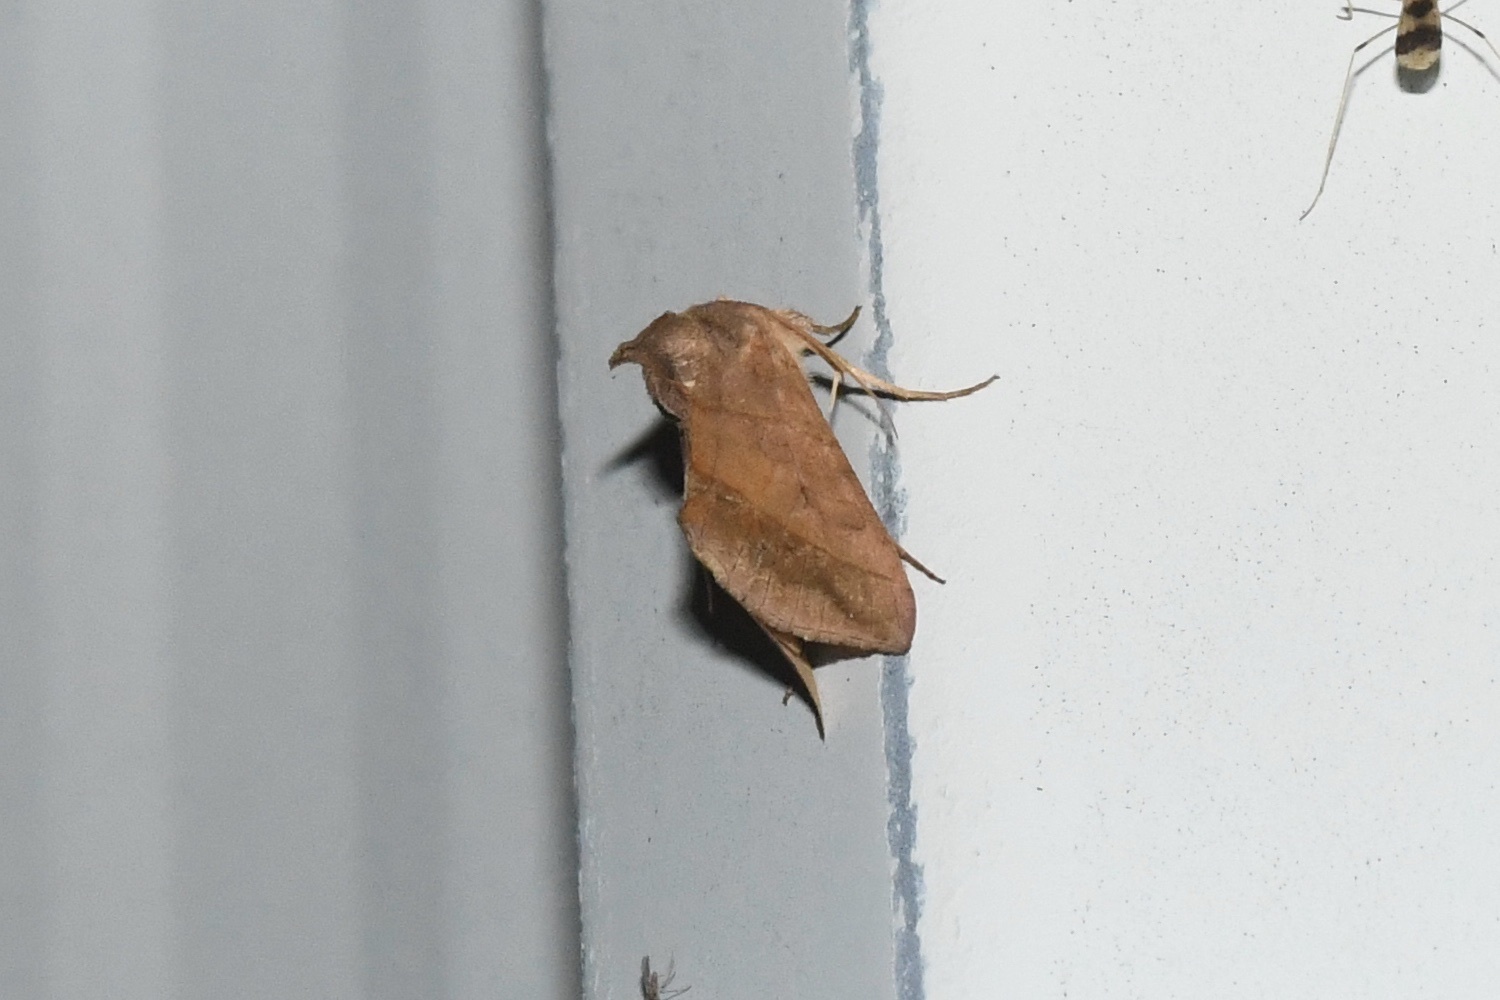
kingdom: Animalia
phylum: Arthropoda
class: Insecta
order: Lepidoptera
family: Noctuidae
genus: Diachrysia
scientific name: Diachrysia aereoides
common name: Dark-spotted looper moth
